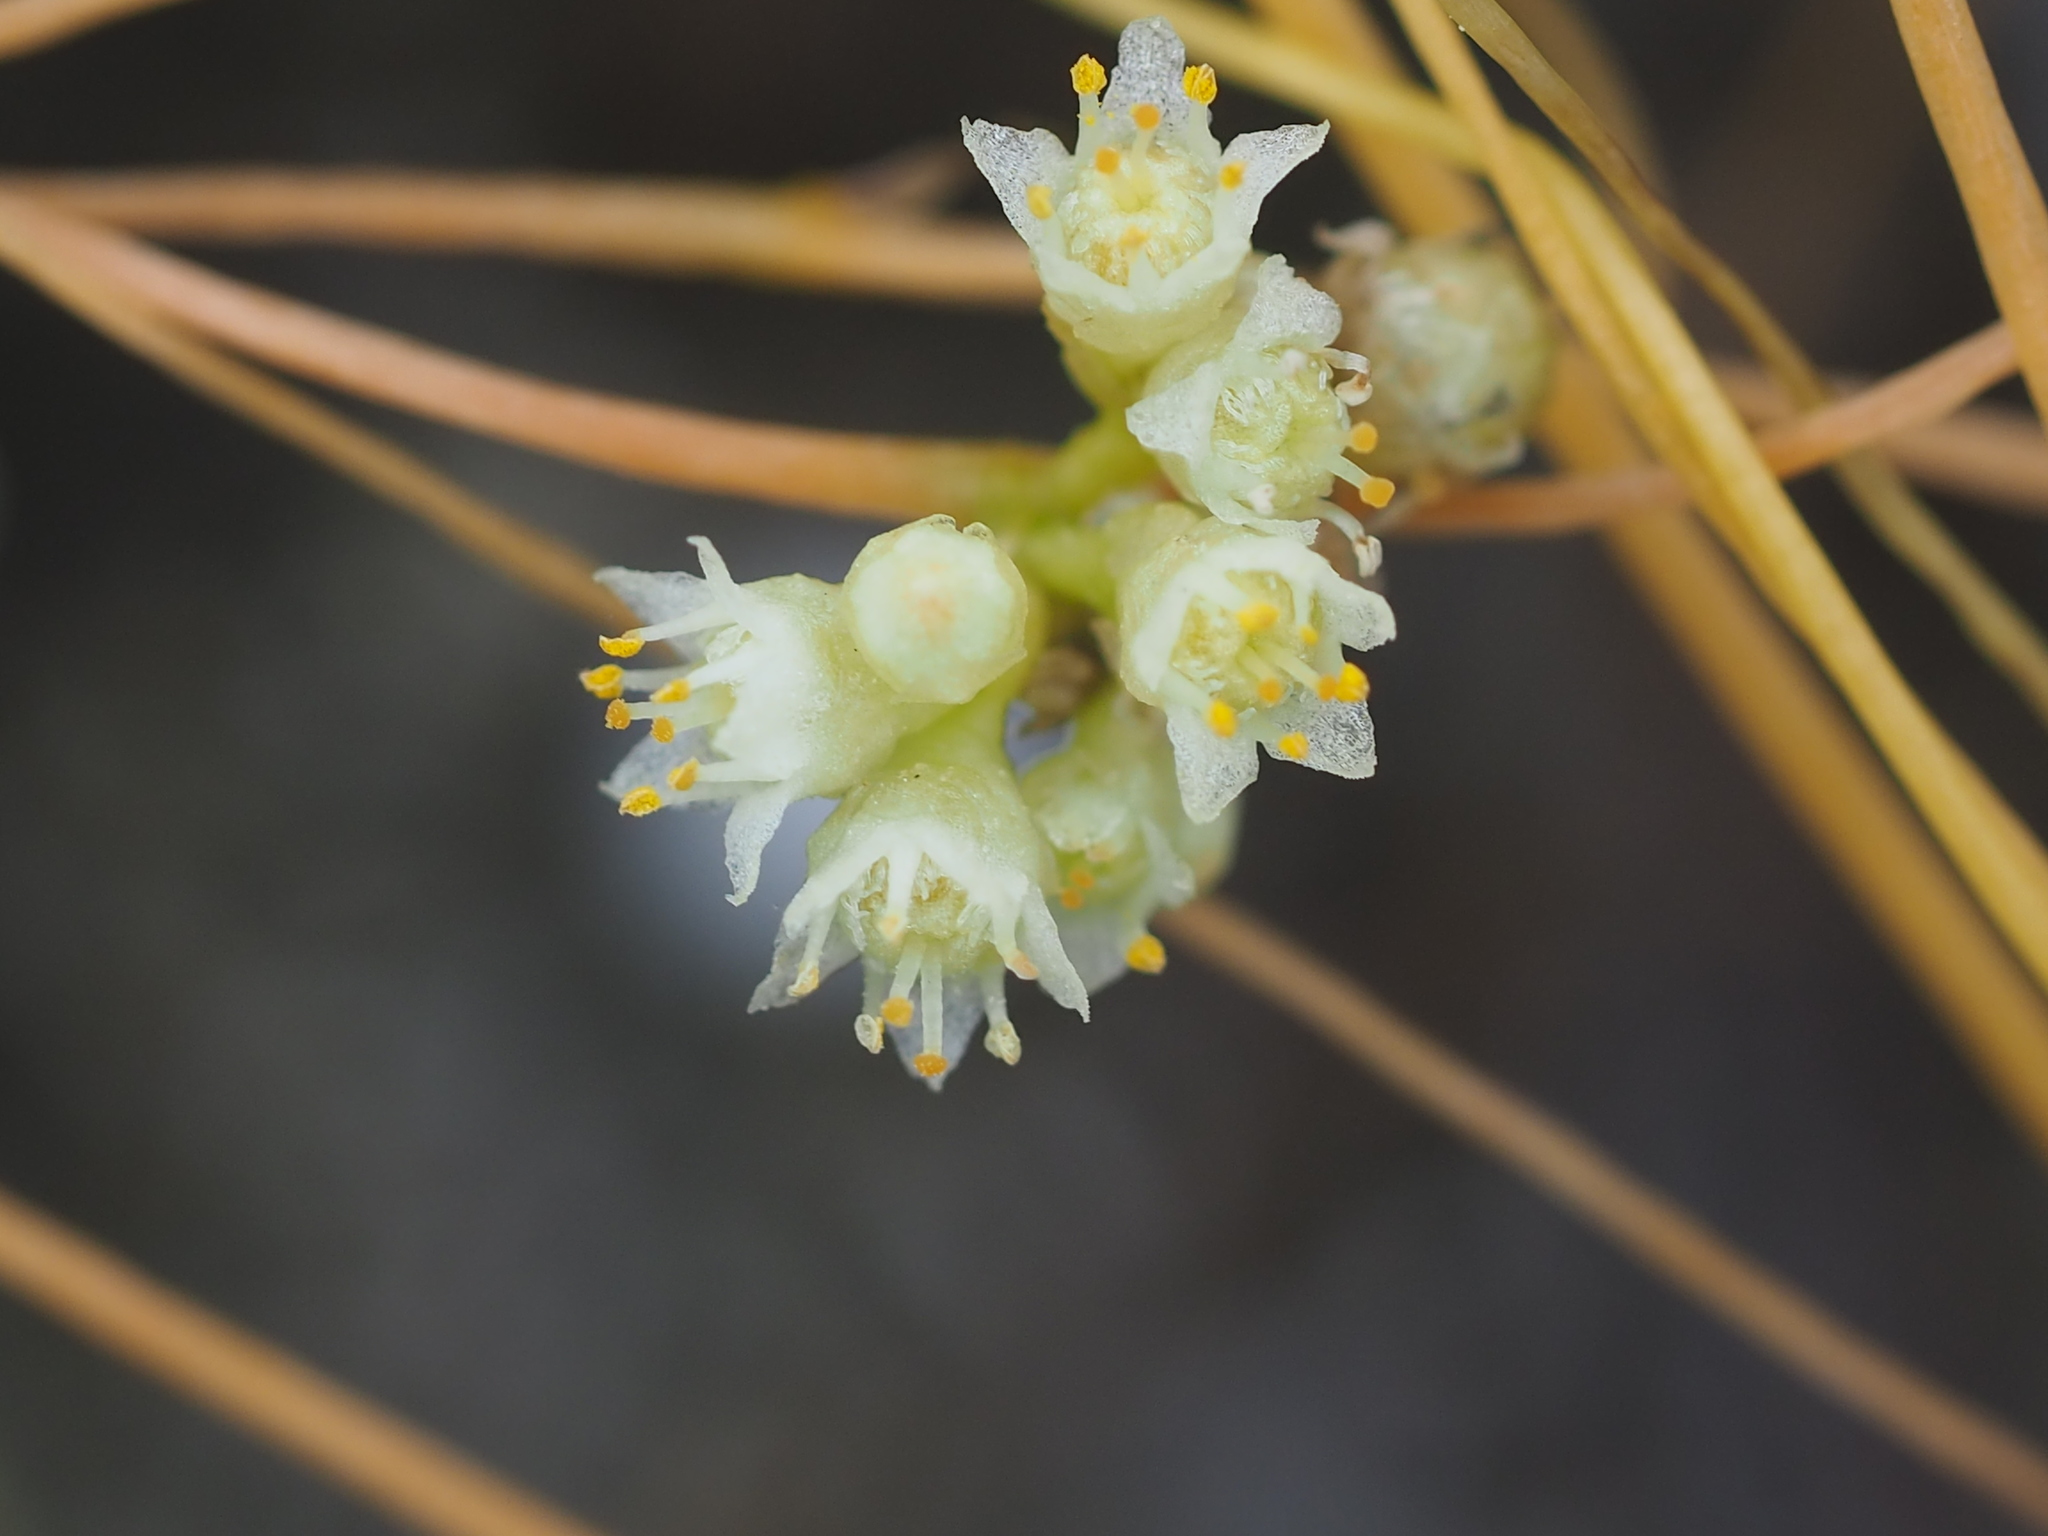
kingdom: Plantae
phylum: Tracheophyta
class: Magnoliopsida
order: Solanales
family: Convolvulaceae
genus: Cuscuta
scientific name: Cuscuta campestris
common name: Yellow dodder
